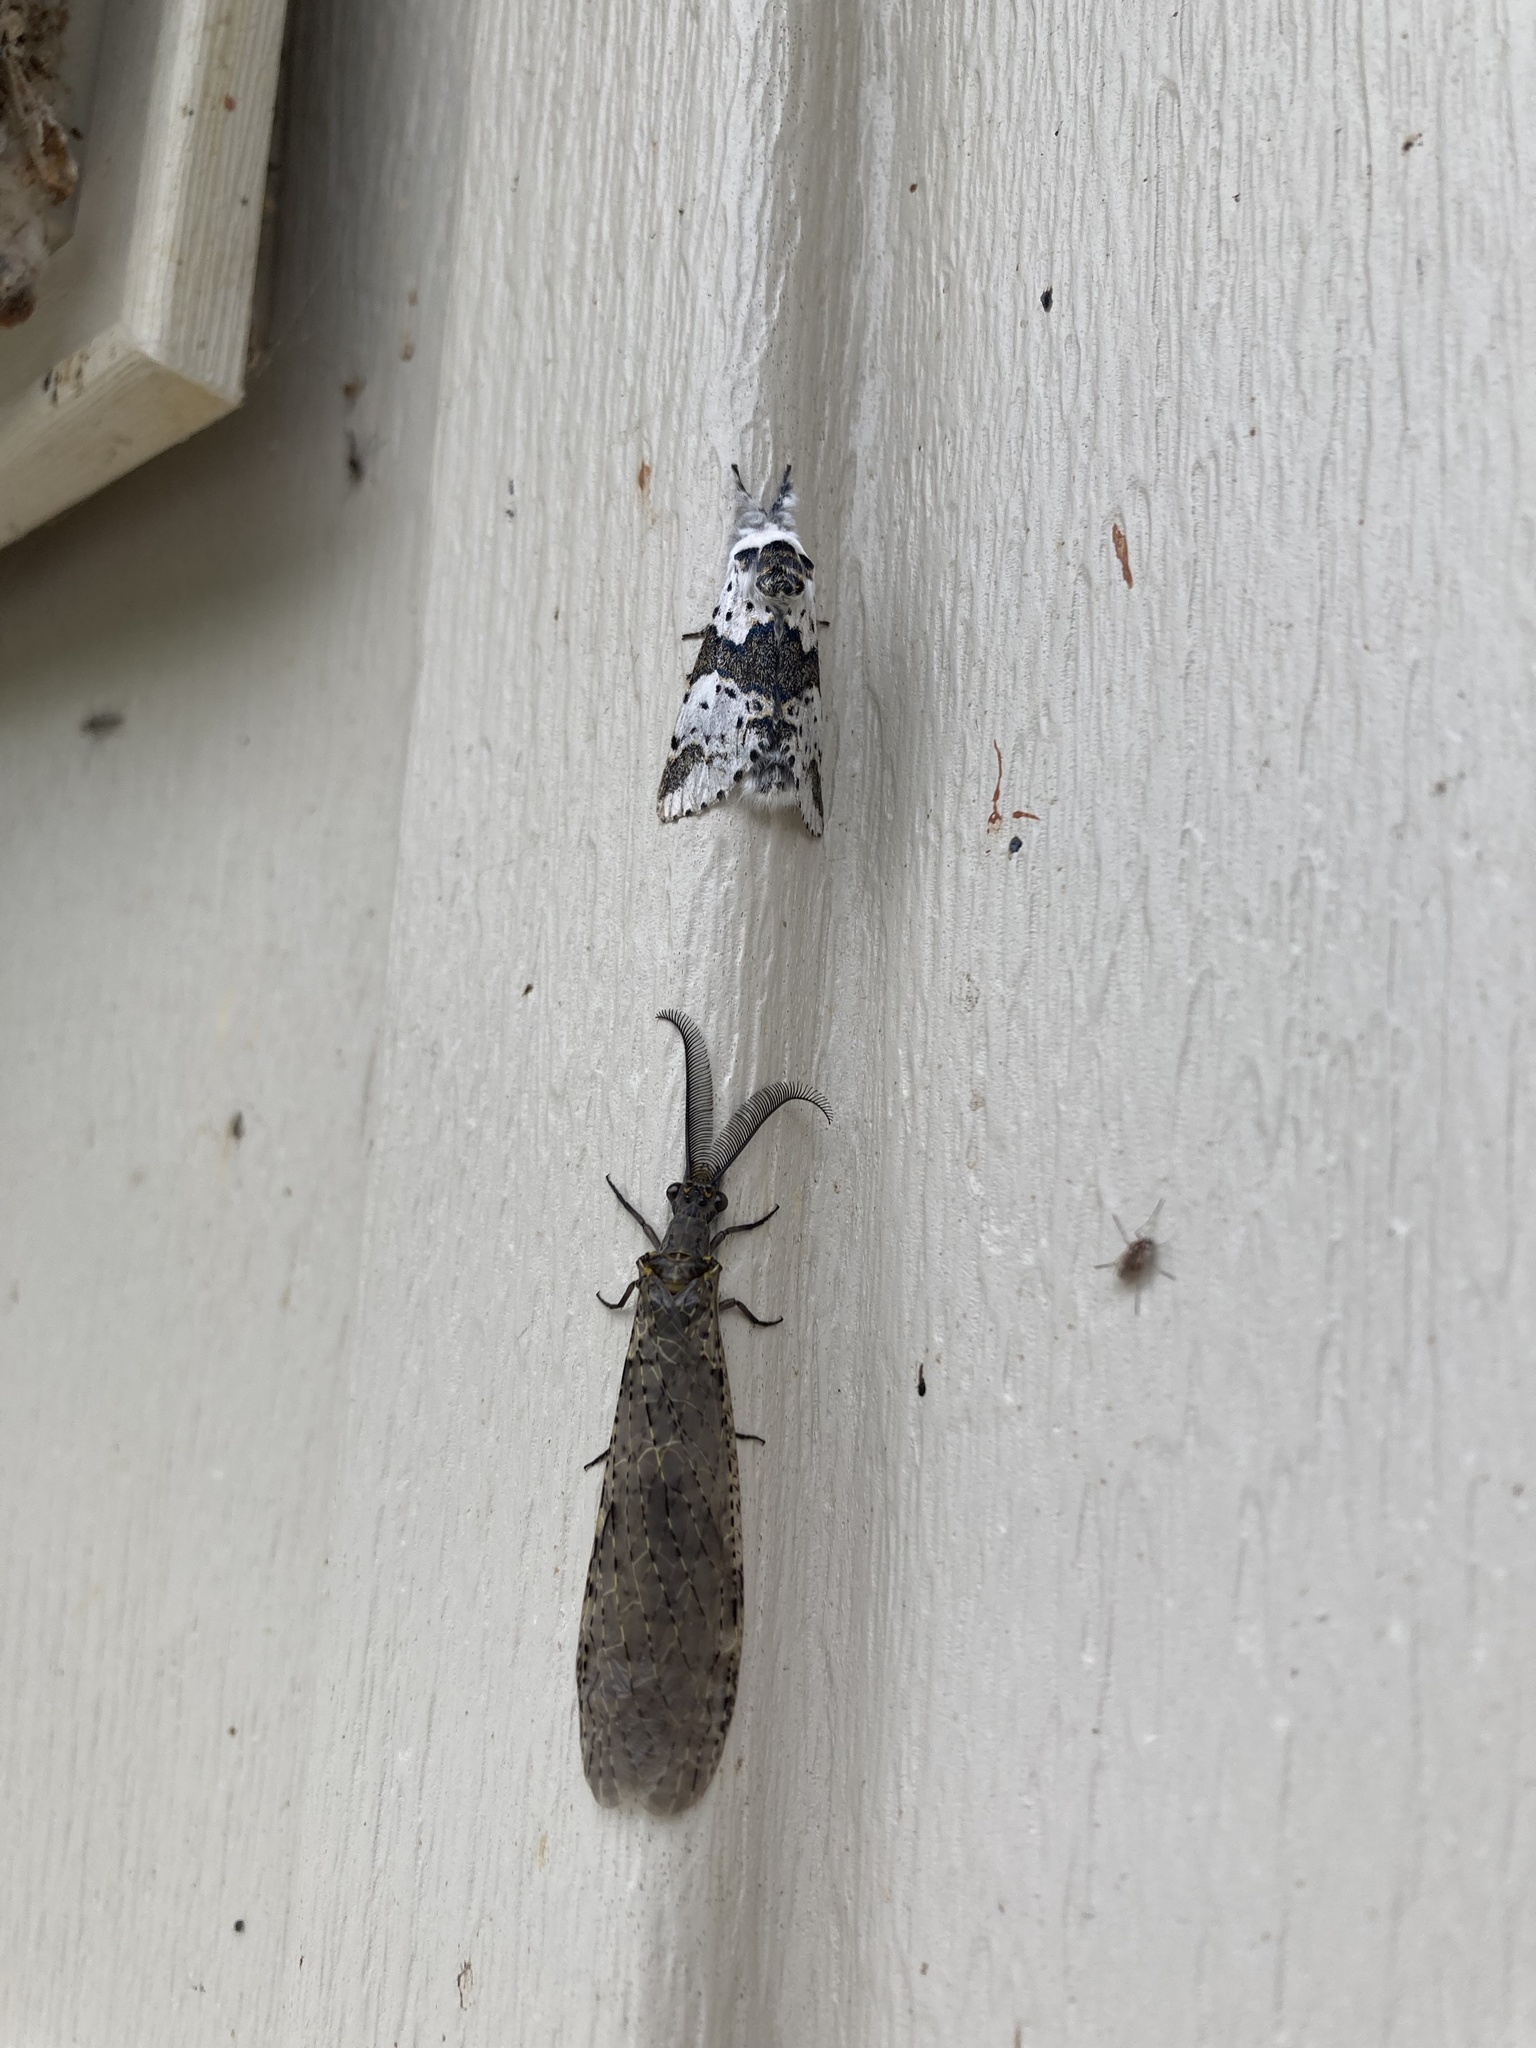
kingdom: Animalia
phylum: Arthropoda
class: Insecta
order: Megaloptera
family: Corydalidae
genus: Chauliodes
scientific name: Chauliodes rastricornis
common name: Spring fishfly
